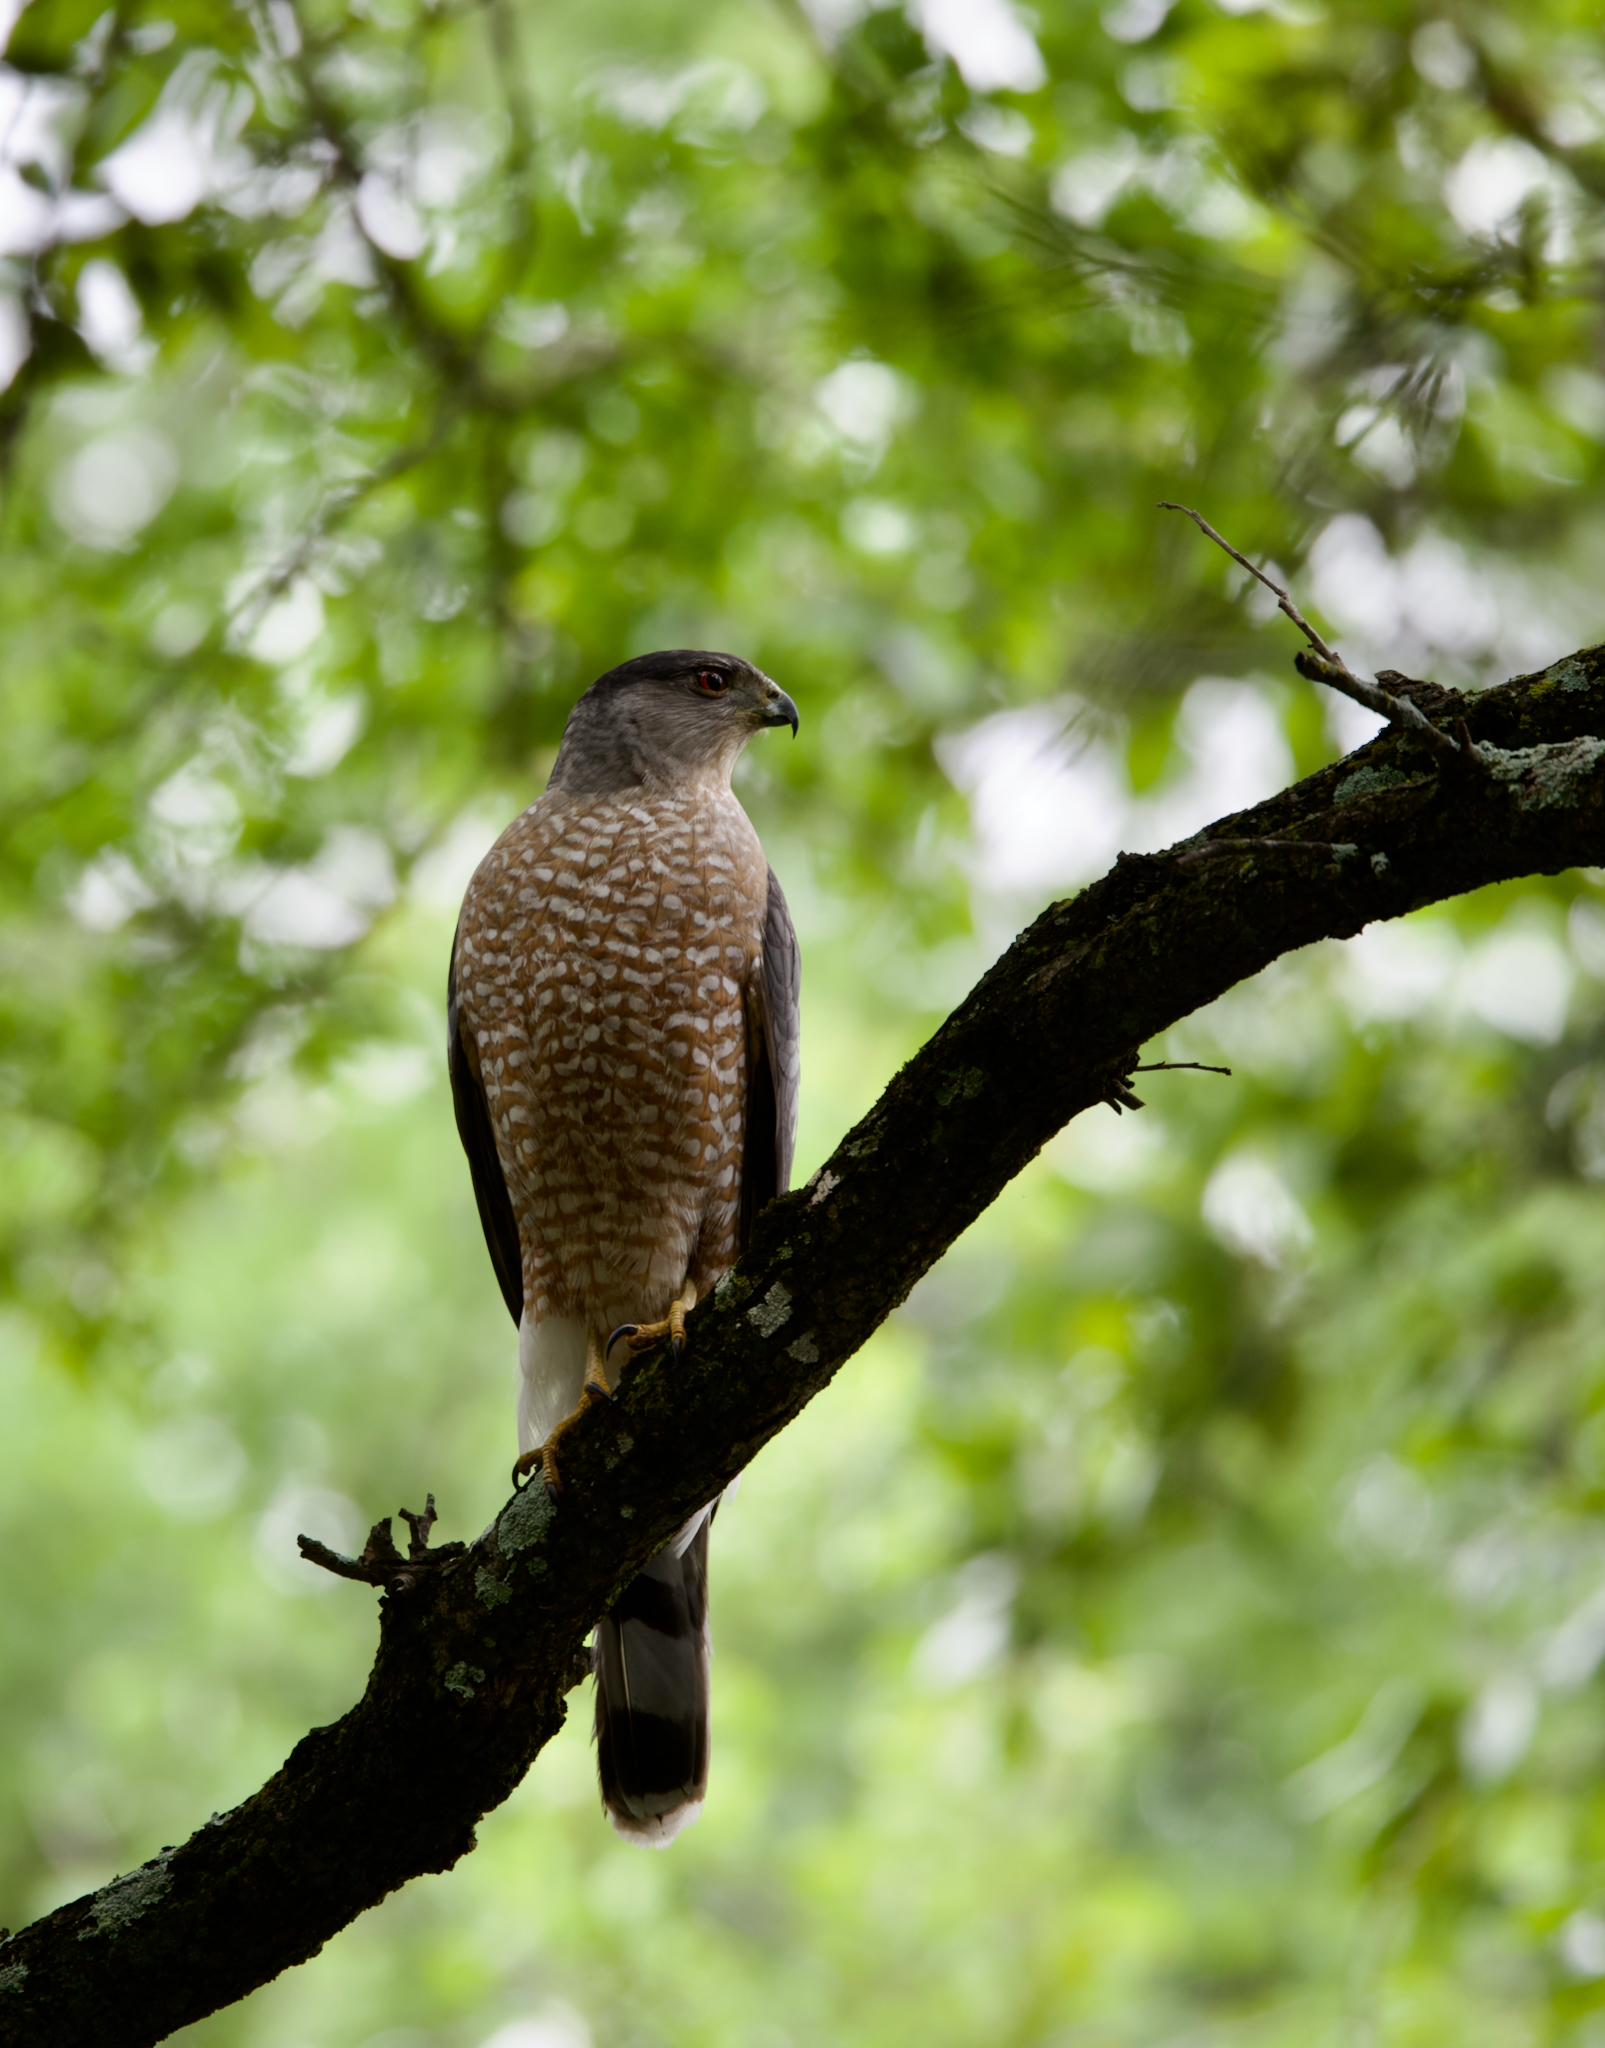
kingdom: Animalia
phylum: Chordata
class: Aves
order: Accipitriformes
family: Accipitridae
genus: Accipiter
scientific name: Accipiter cooperii
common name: Cooper's hawk
